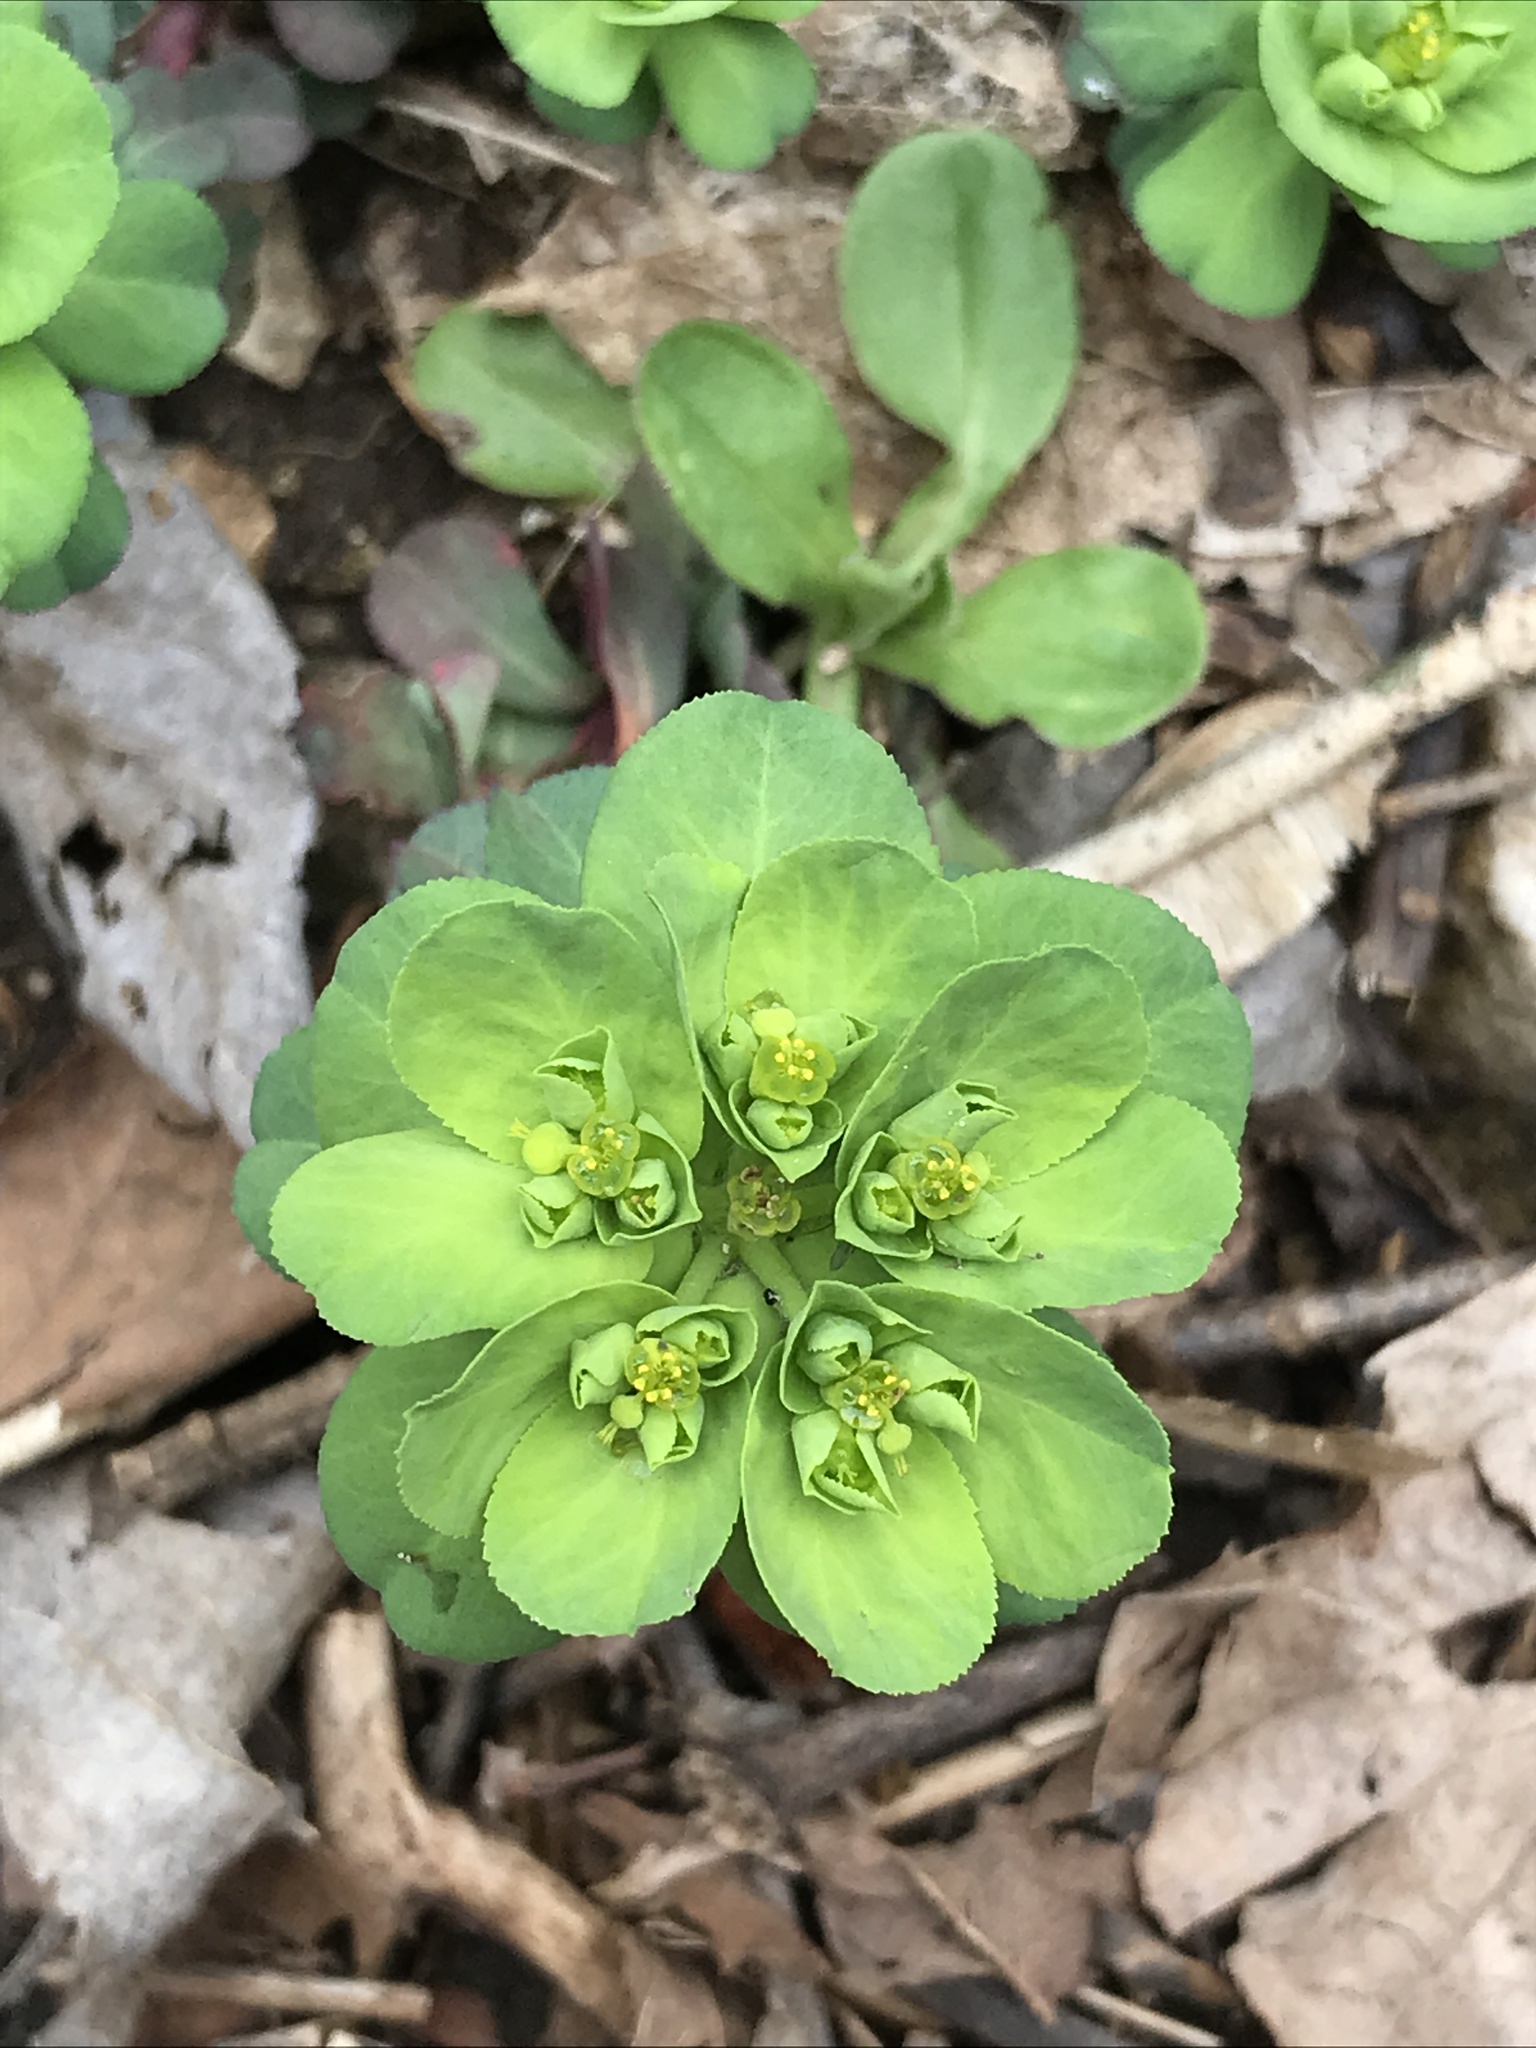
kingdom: Plantae
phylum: Tracheophyta
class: Magnoliopsida
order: Malpighiales
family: Euphorbiaceae
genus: Euphorbia
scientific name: Euphorbia helioscopia
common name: Sun spurge
